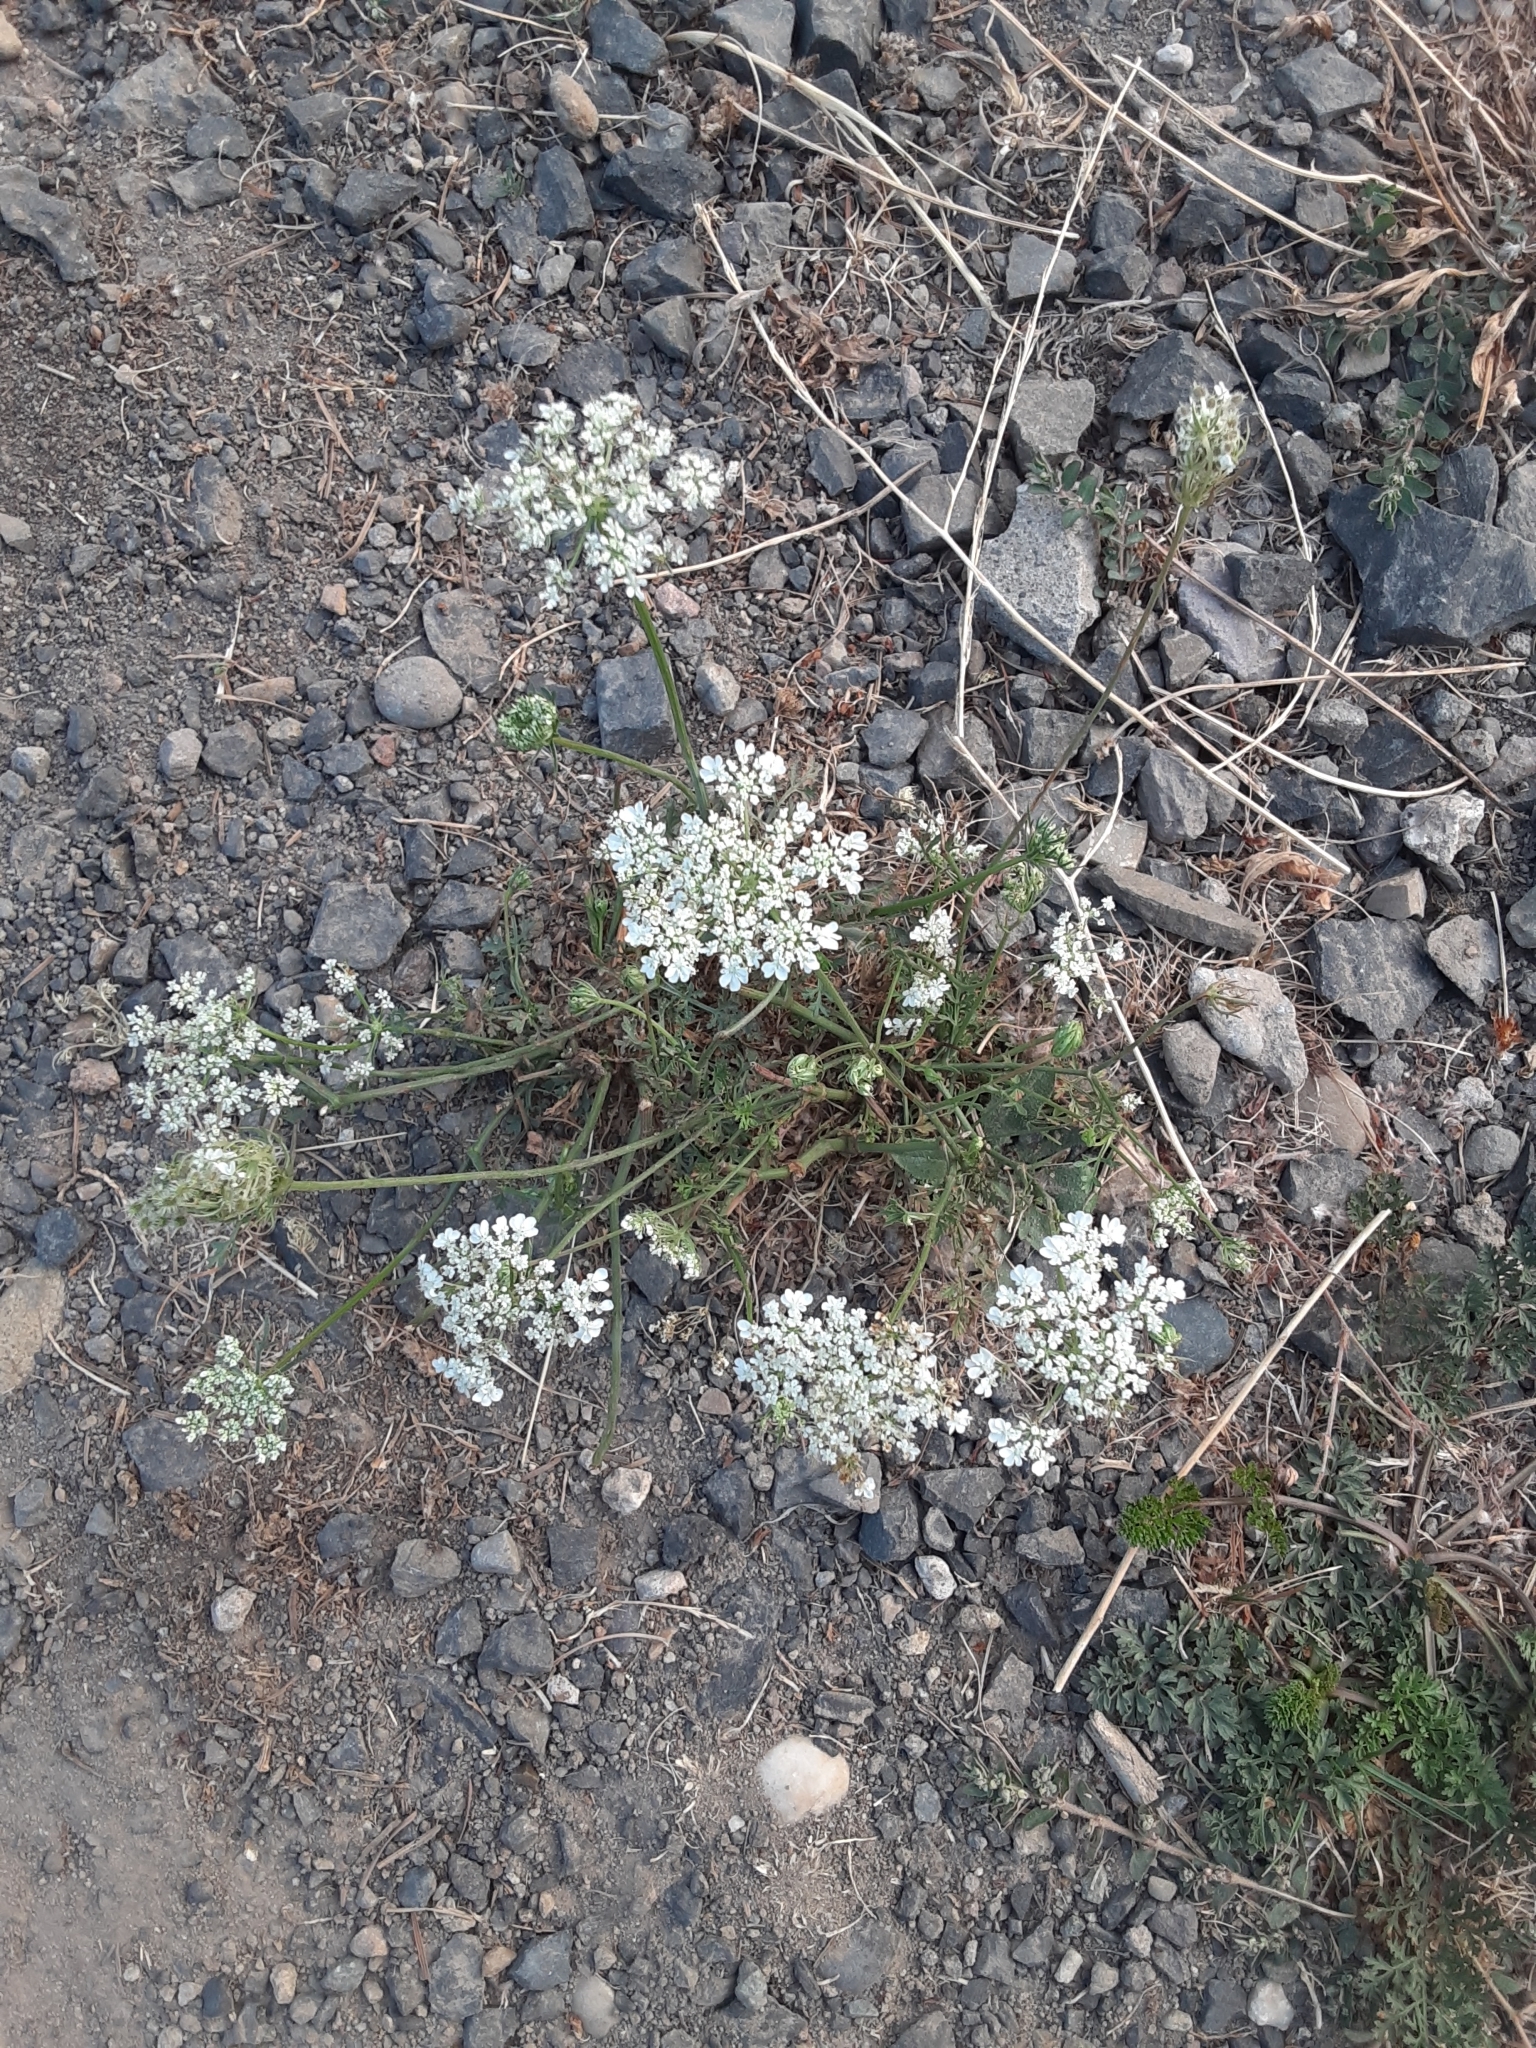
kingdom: Plantae
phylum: Tracheophyta
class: Magnoliopsida
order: Apiales
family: Apiaceae
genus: Daucus
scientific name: Daucus carota
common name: Wild carrot
